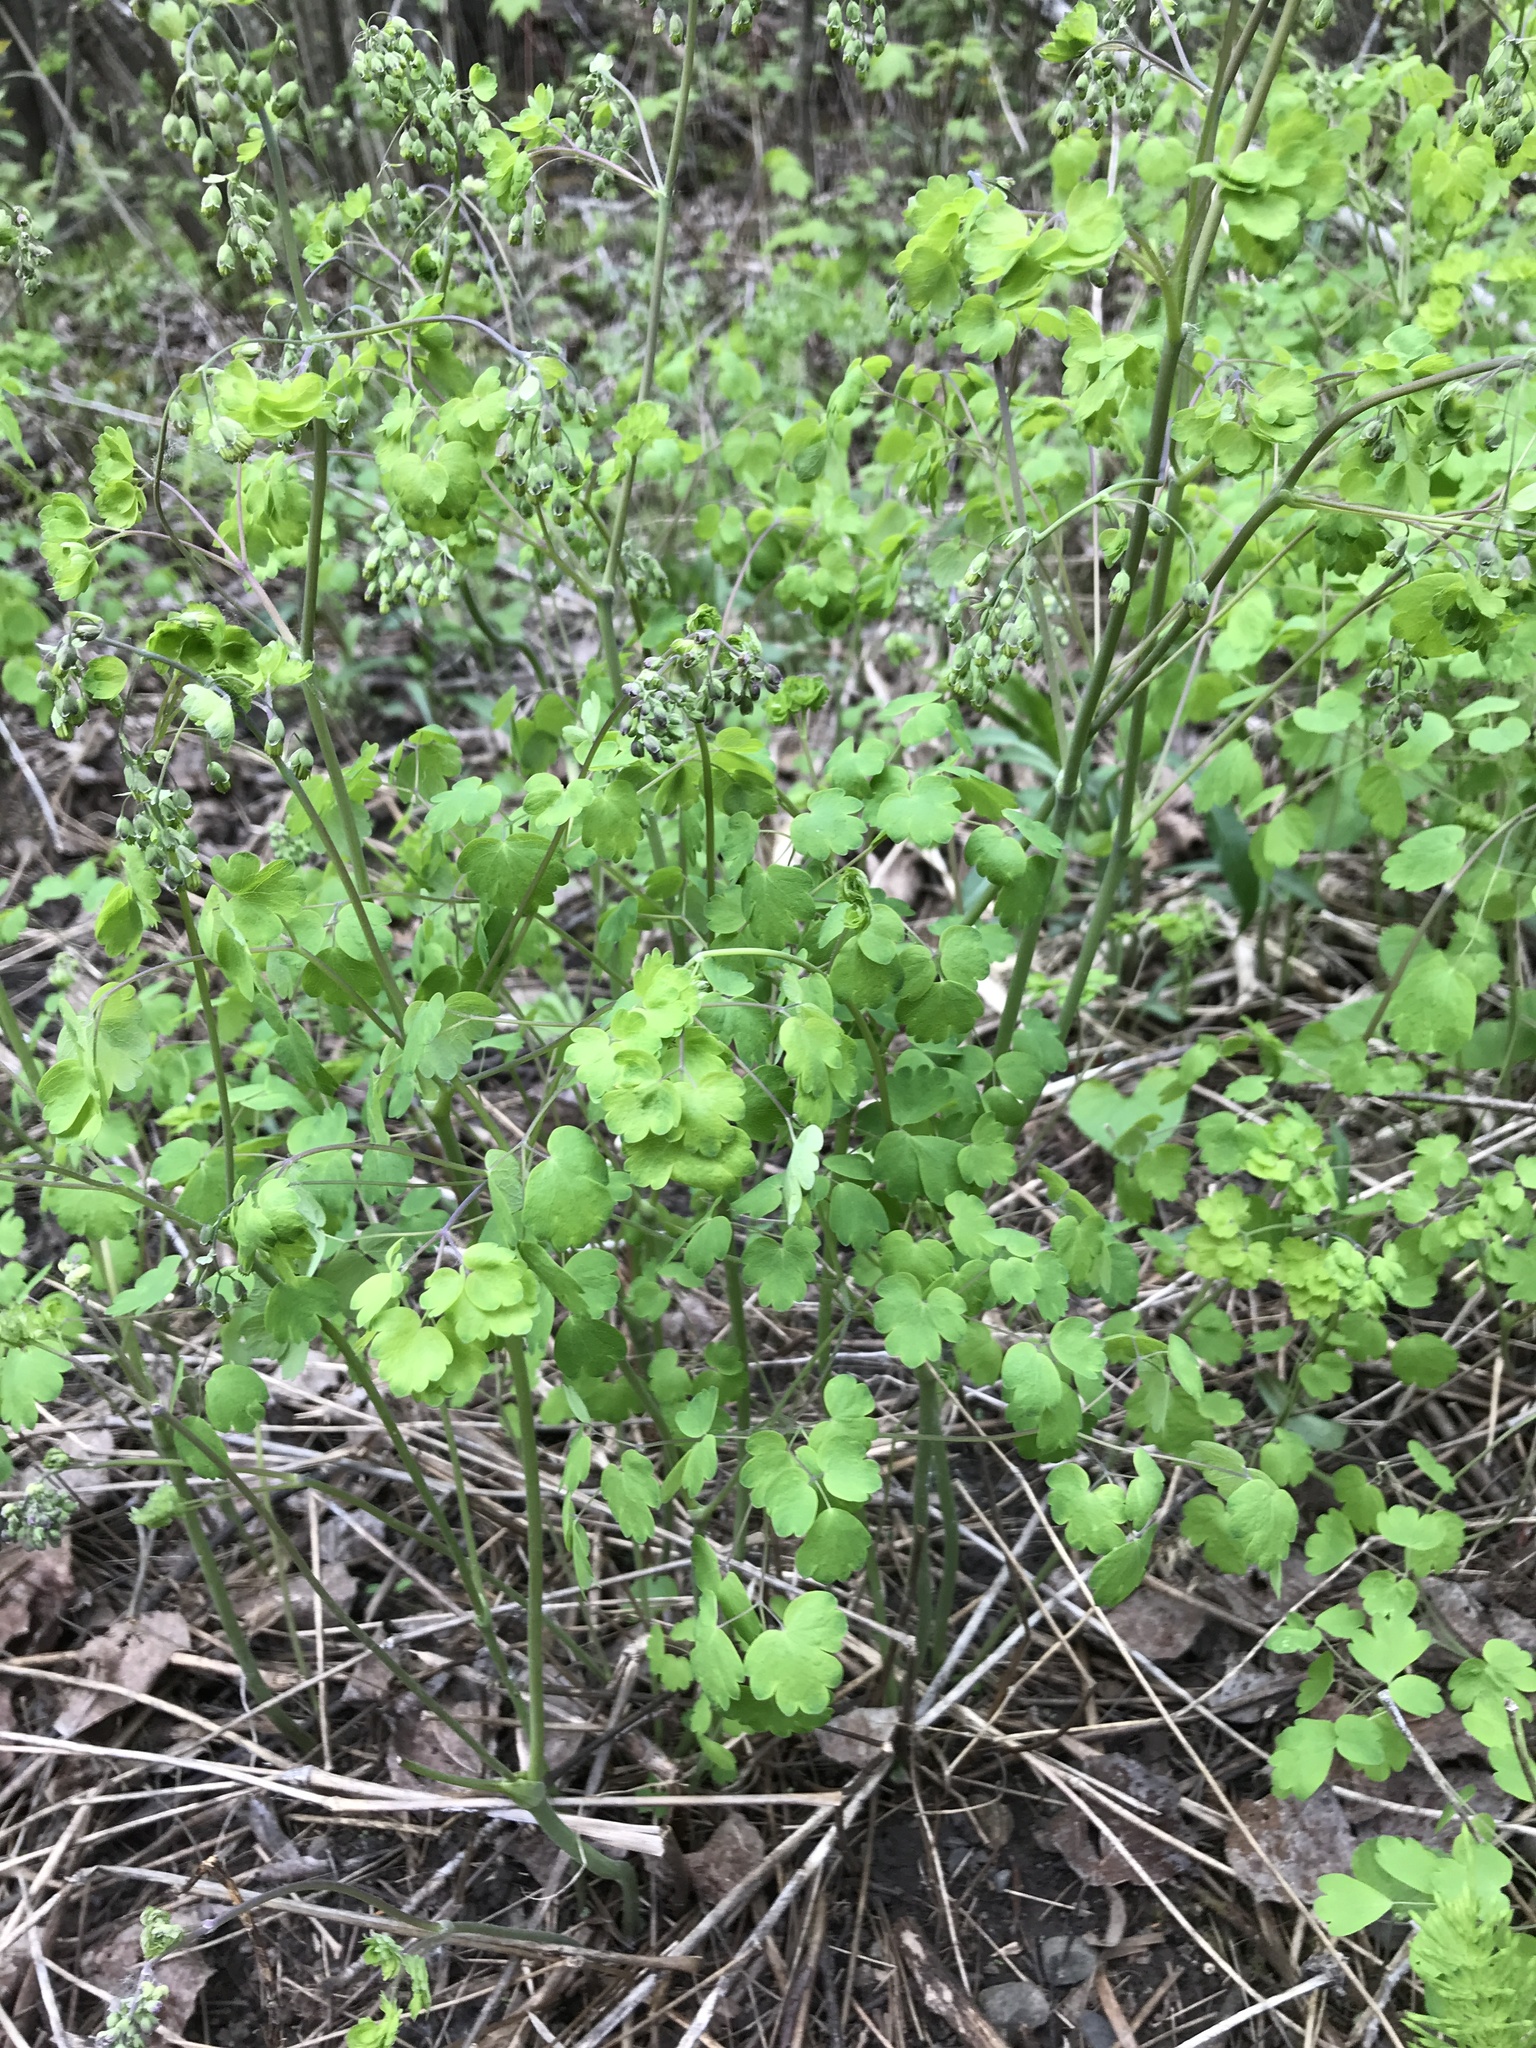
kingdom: Plantae
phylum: Tracheophyta
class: Magnoliopsida
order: Ranunculales
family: Ranunculaceae
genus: Thalictrum
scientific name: Thalictrum venulosum
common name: Early meadow-rue
